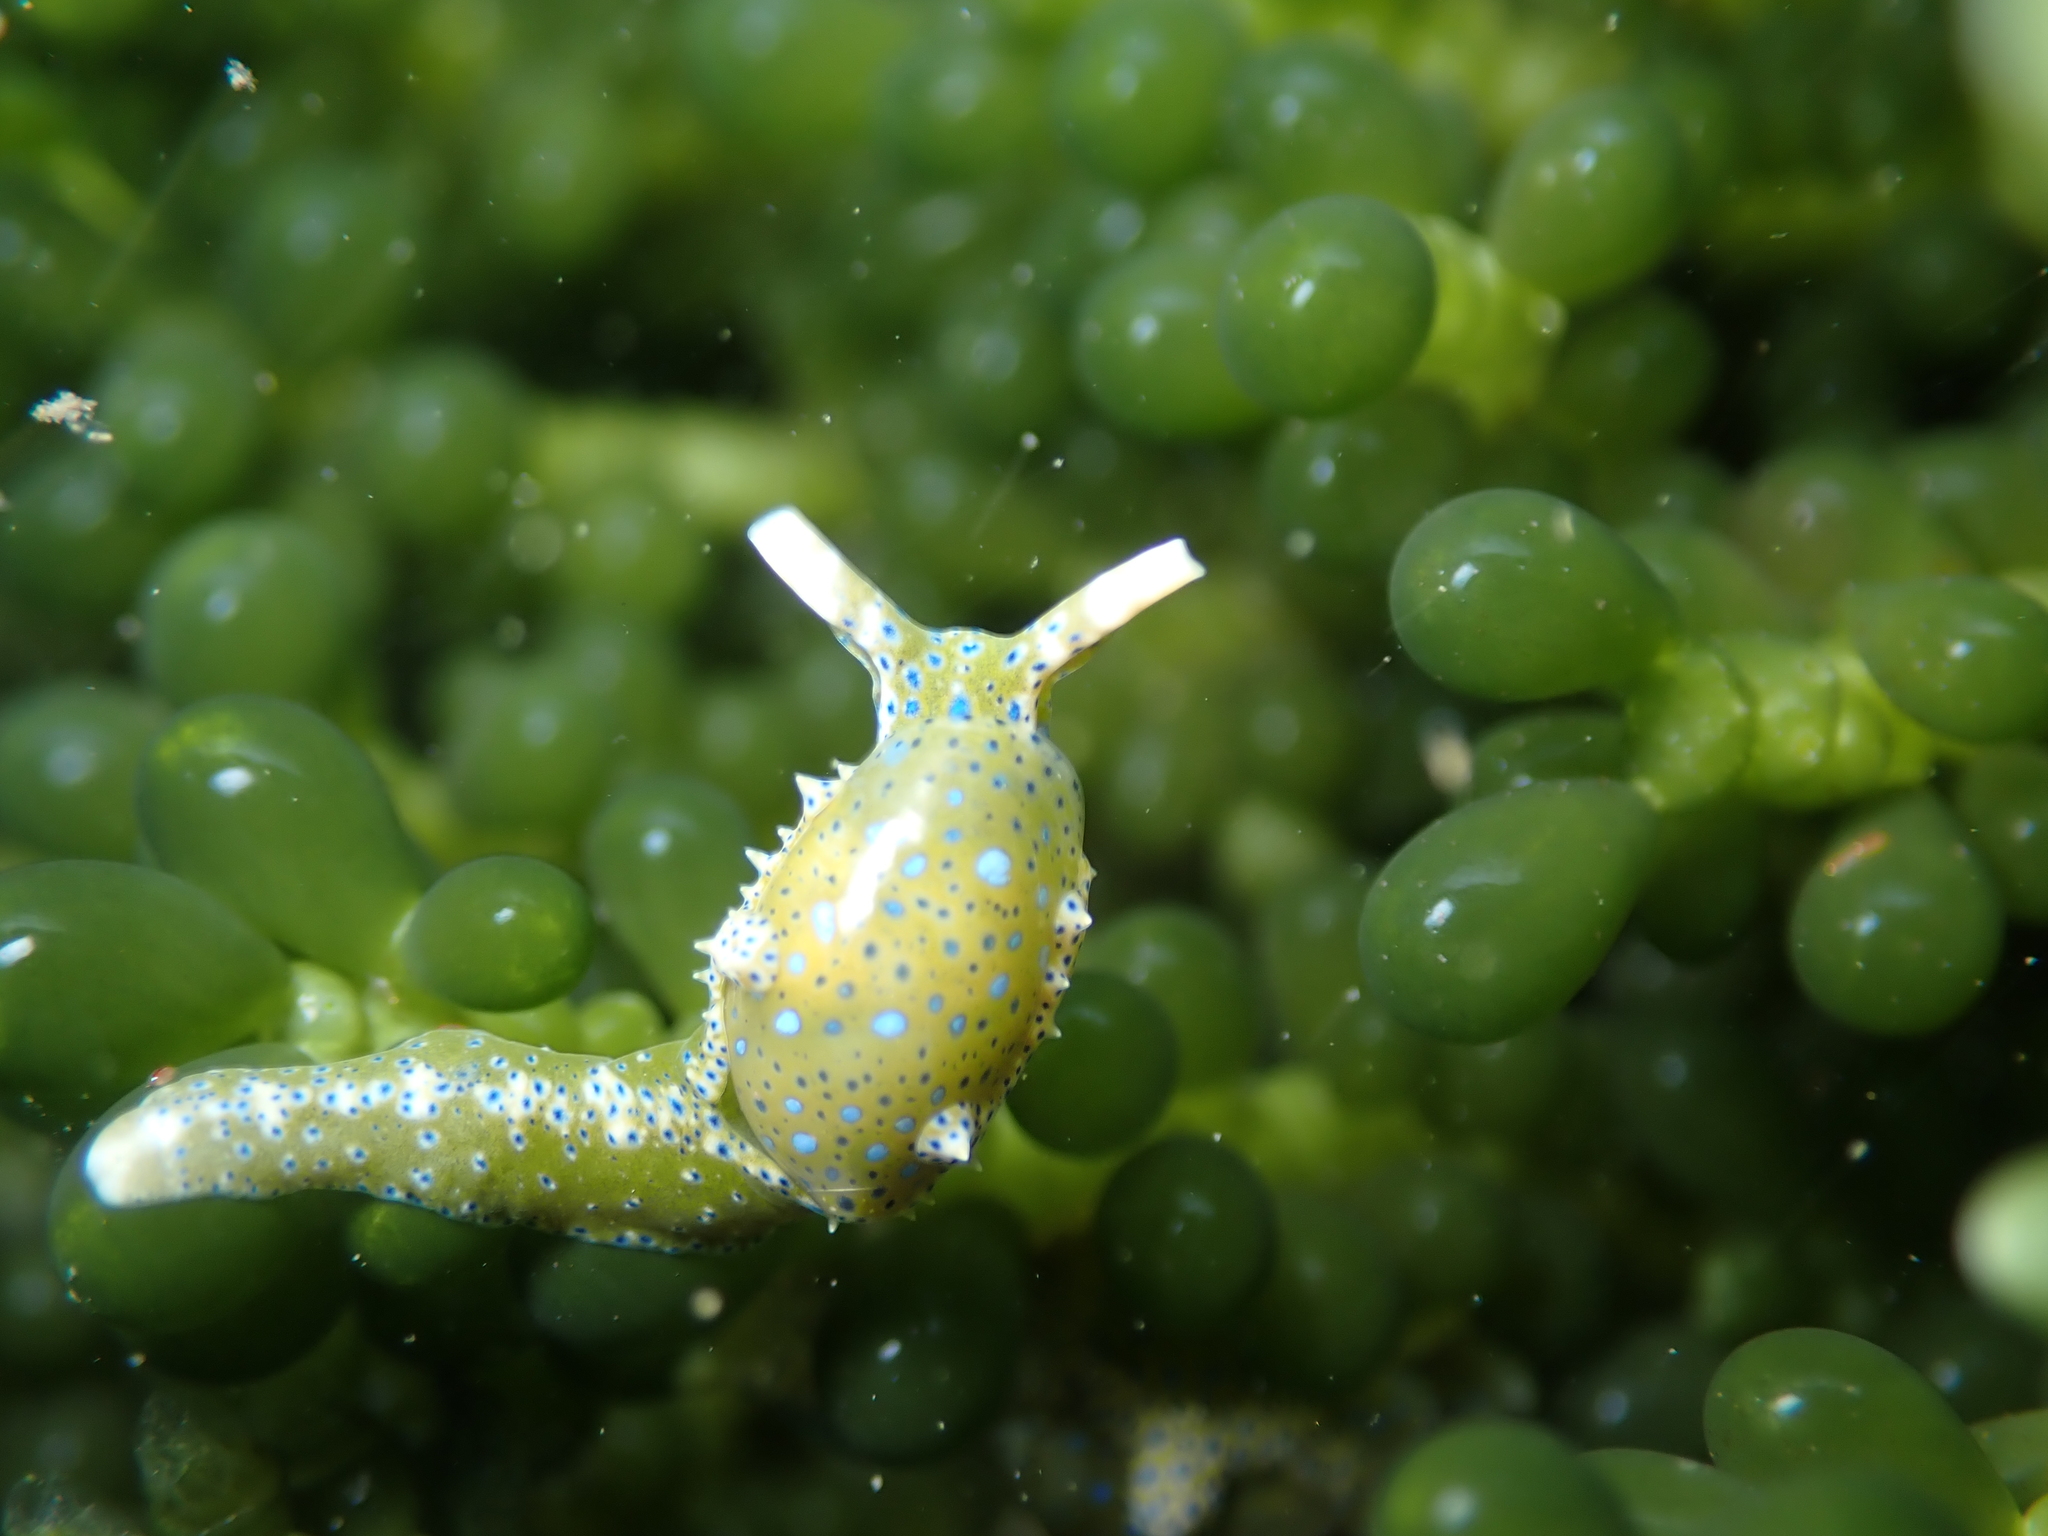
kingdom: Animalia
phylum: Mollusca
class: Gastropoda
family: Oxynoidae
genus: Oxynoe
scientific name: Oxynoe viridis
